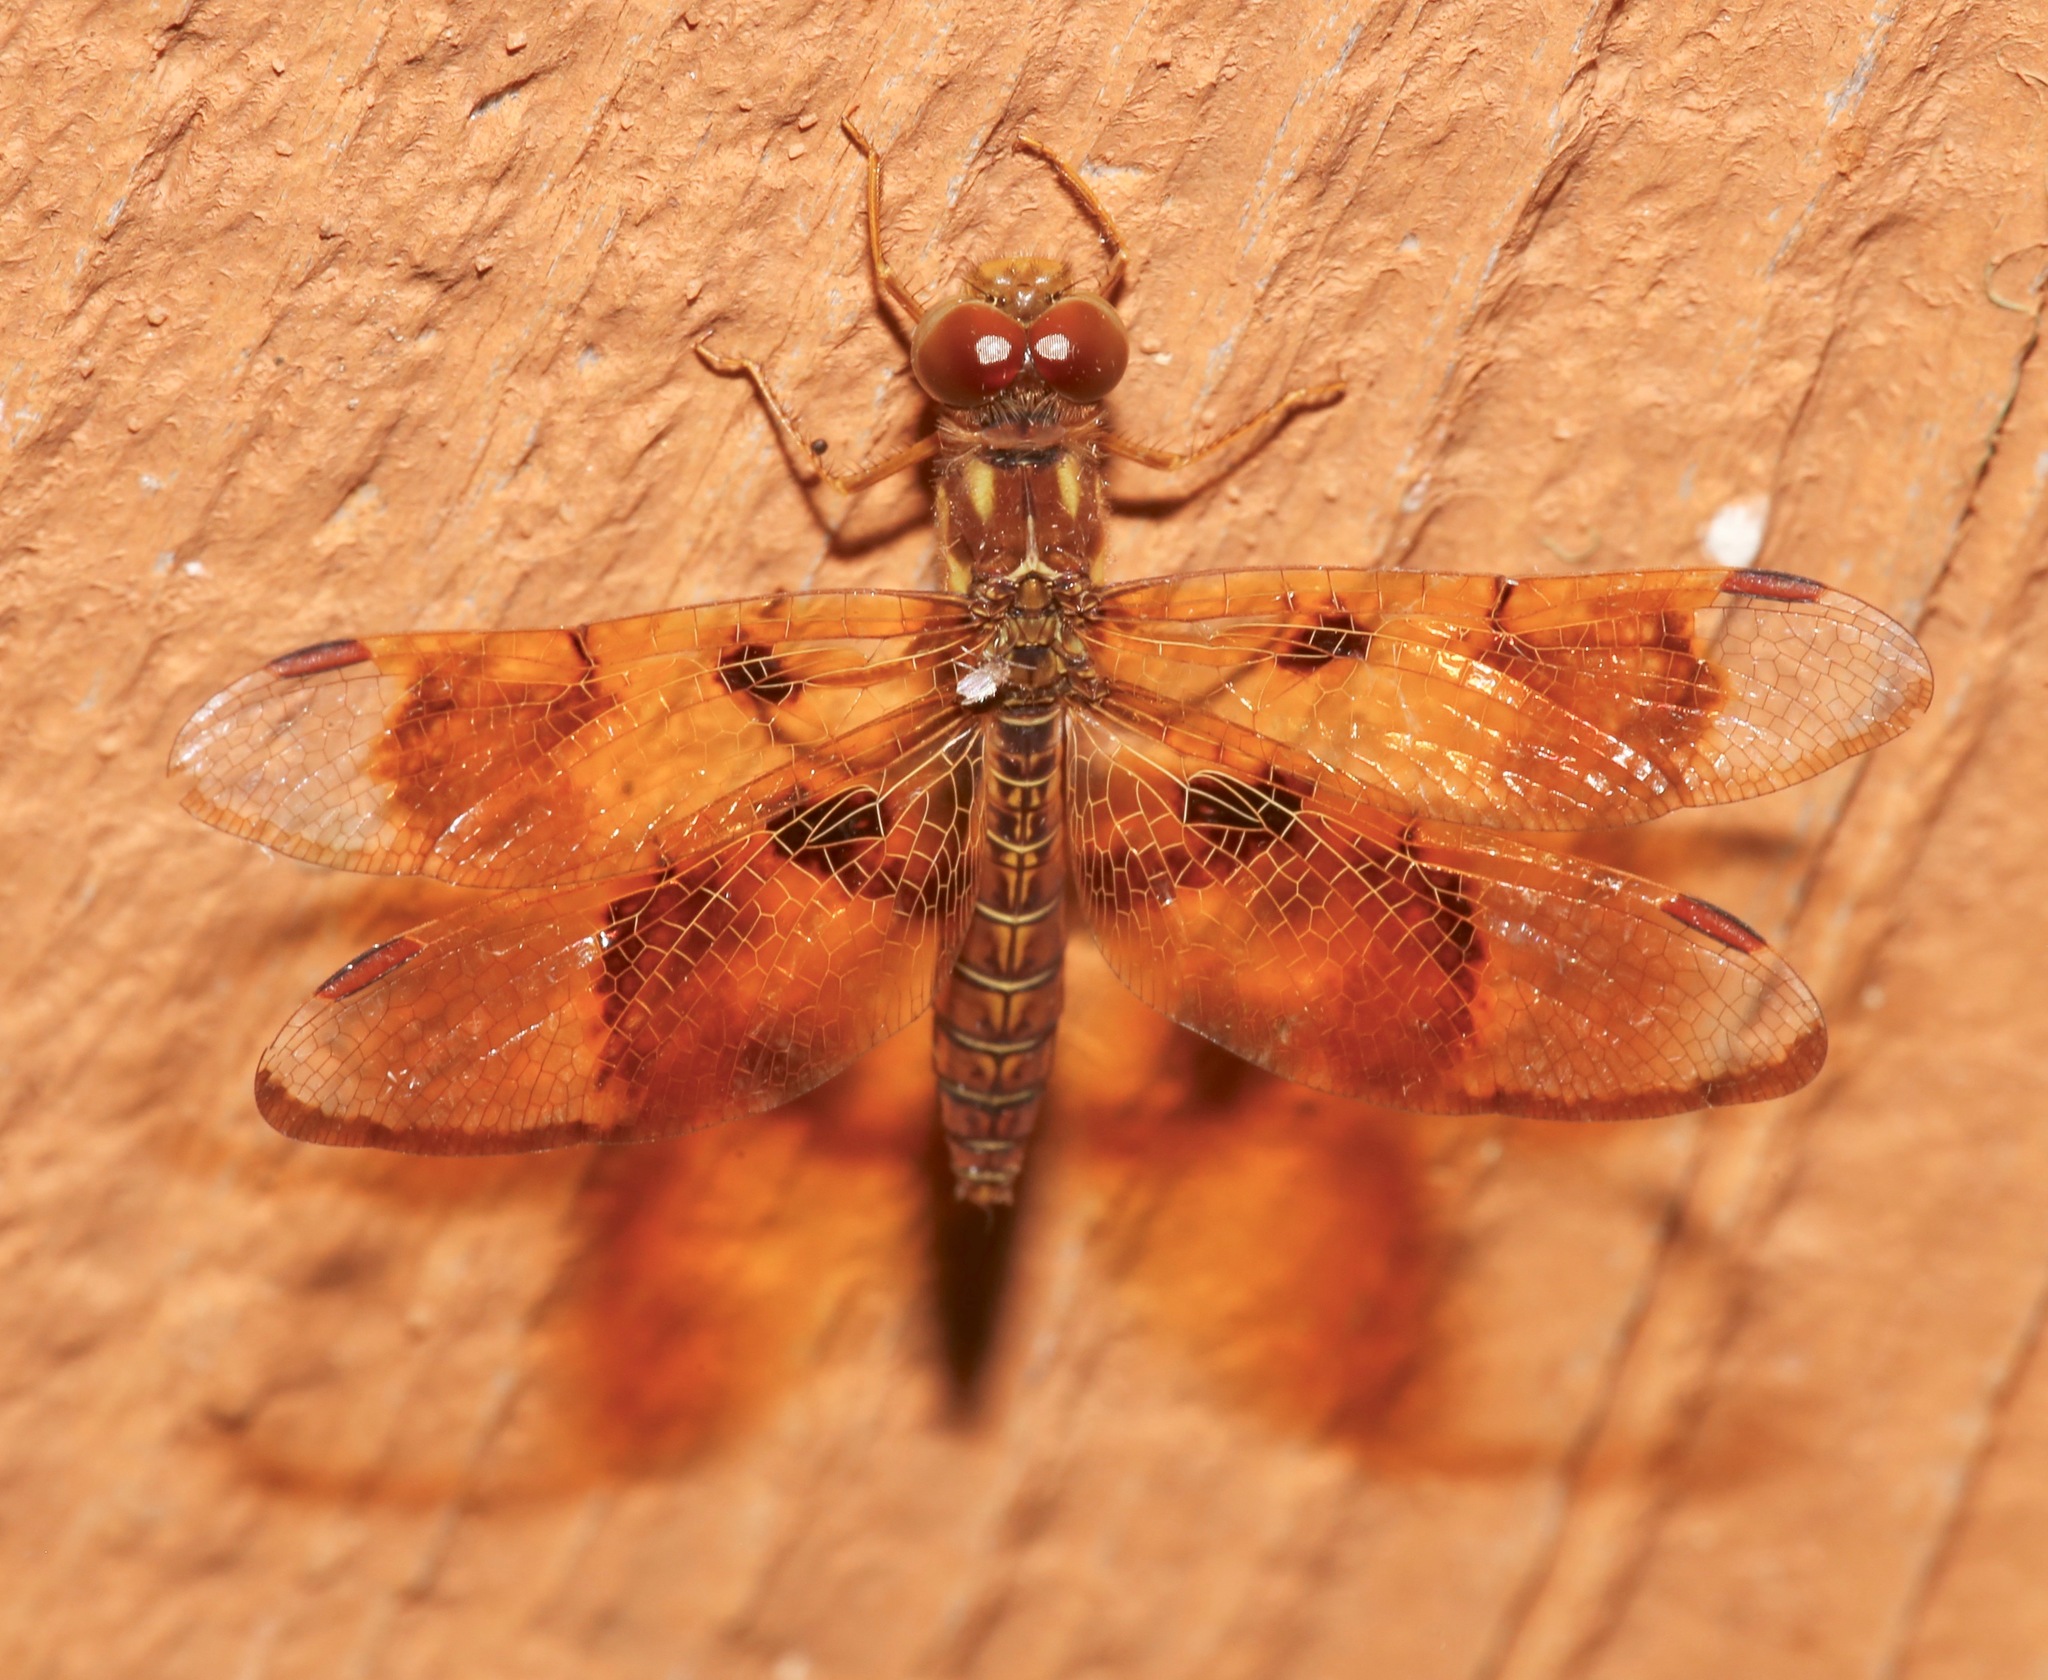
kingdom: Animalia
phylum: Arthropoda
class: Insecta
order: Odonata
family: Libellulidae
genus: Perithemis
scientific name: Perithemis tenera
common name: Eastern amberwing
